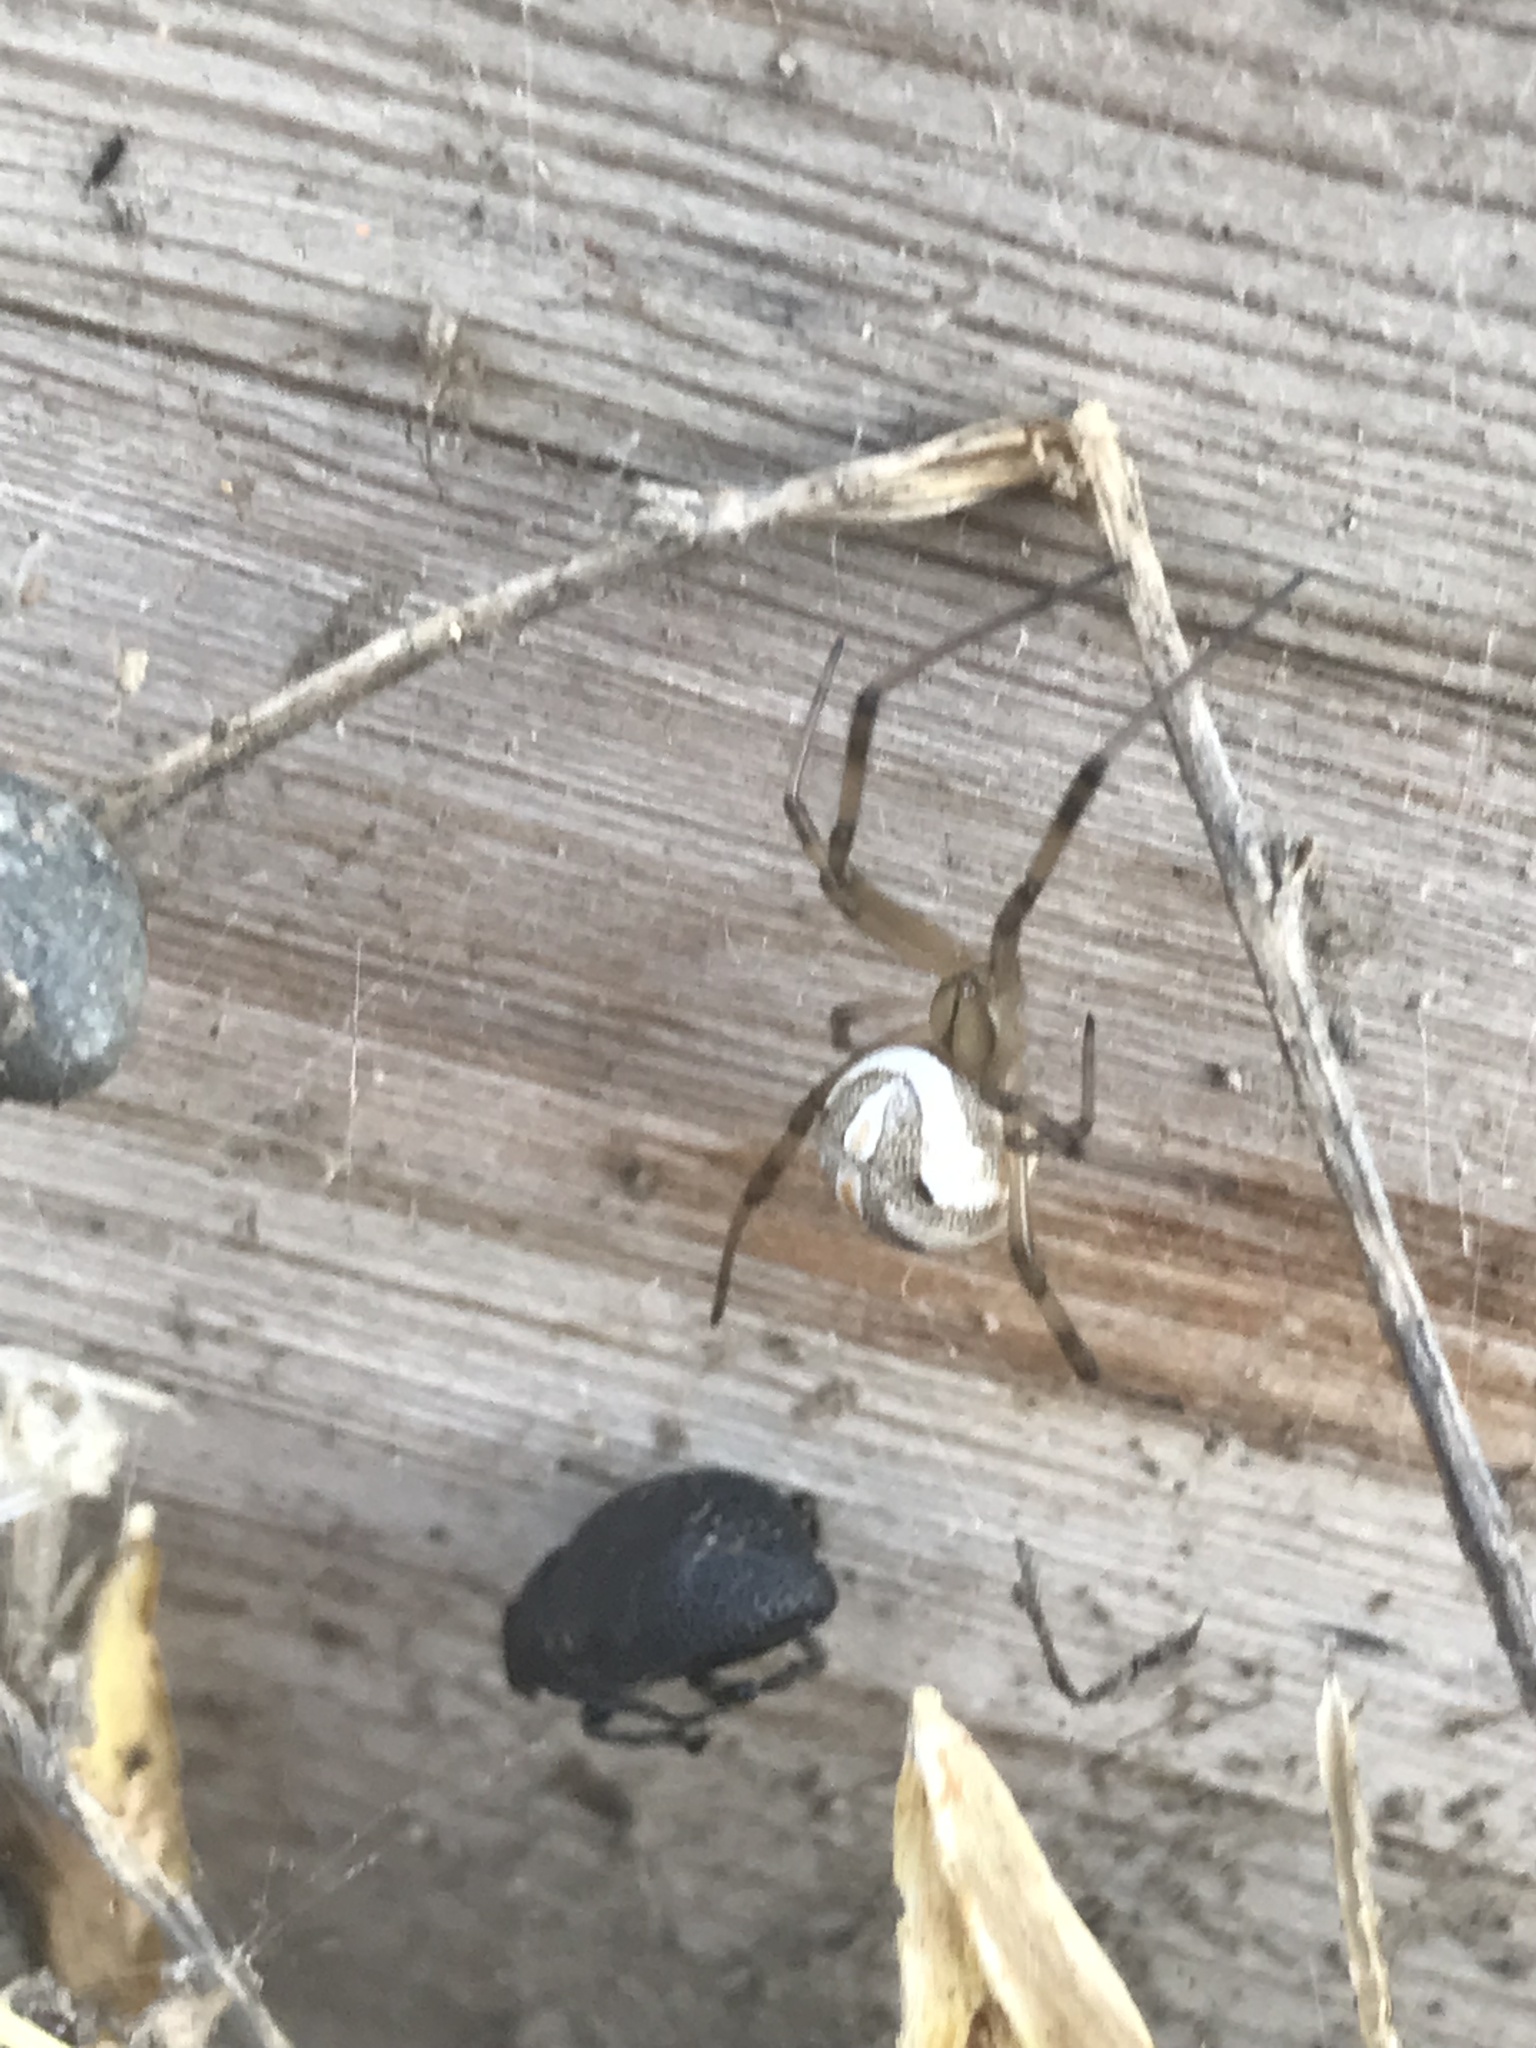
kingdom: Animalia
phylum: Arthropoda
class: Arachnida
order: Araneae
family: Theridiidae
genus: Latrodectus
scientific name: Latrodectus hesperus
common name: Western black widow
